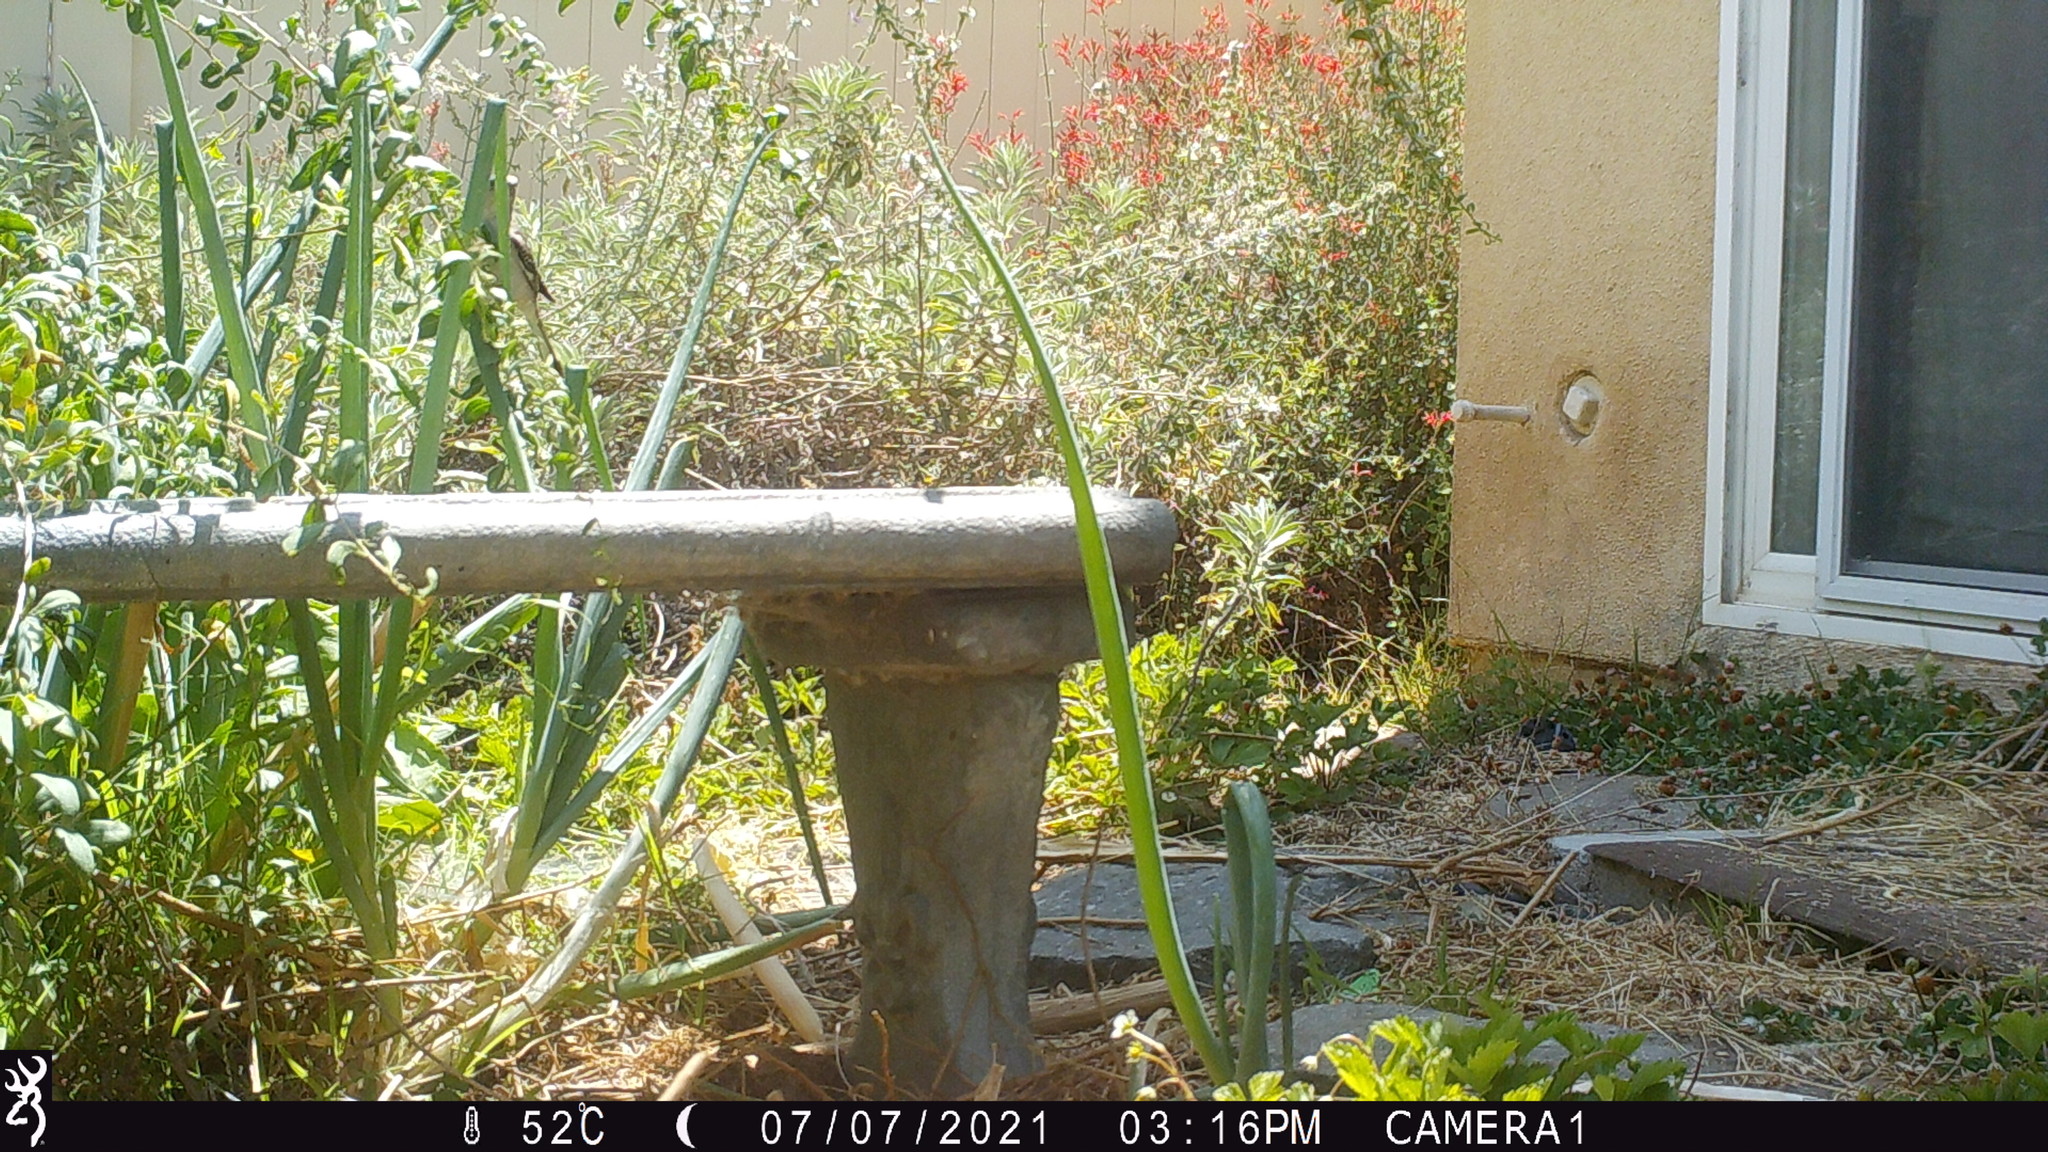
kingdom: Animalia
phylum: Chordata
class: Aves
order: Passeriformes
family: Mimidae
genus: Mimus
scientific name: Mimus polyglottos
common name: Northern mockingbird
